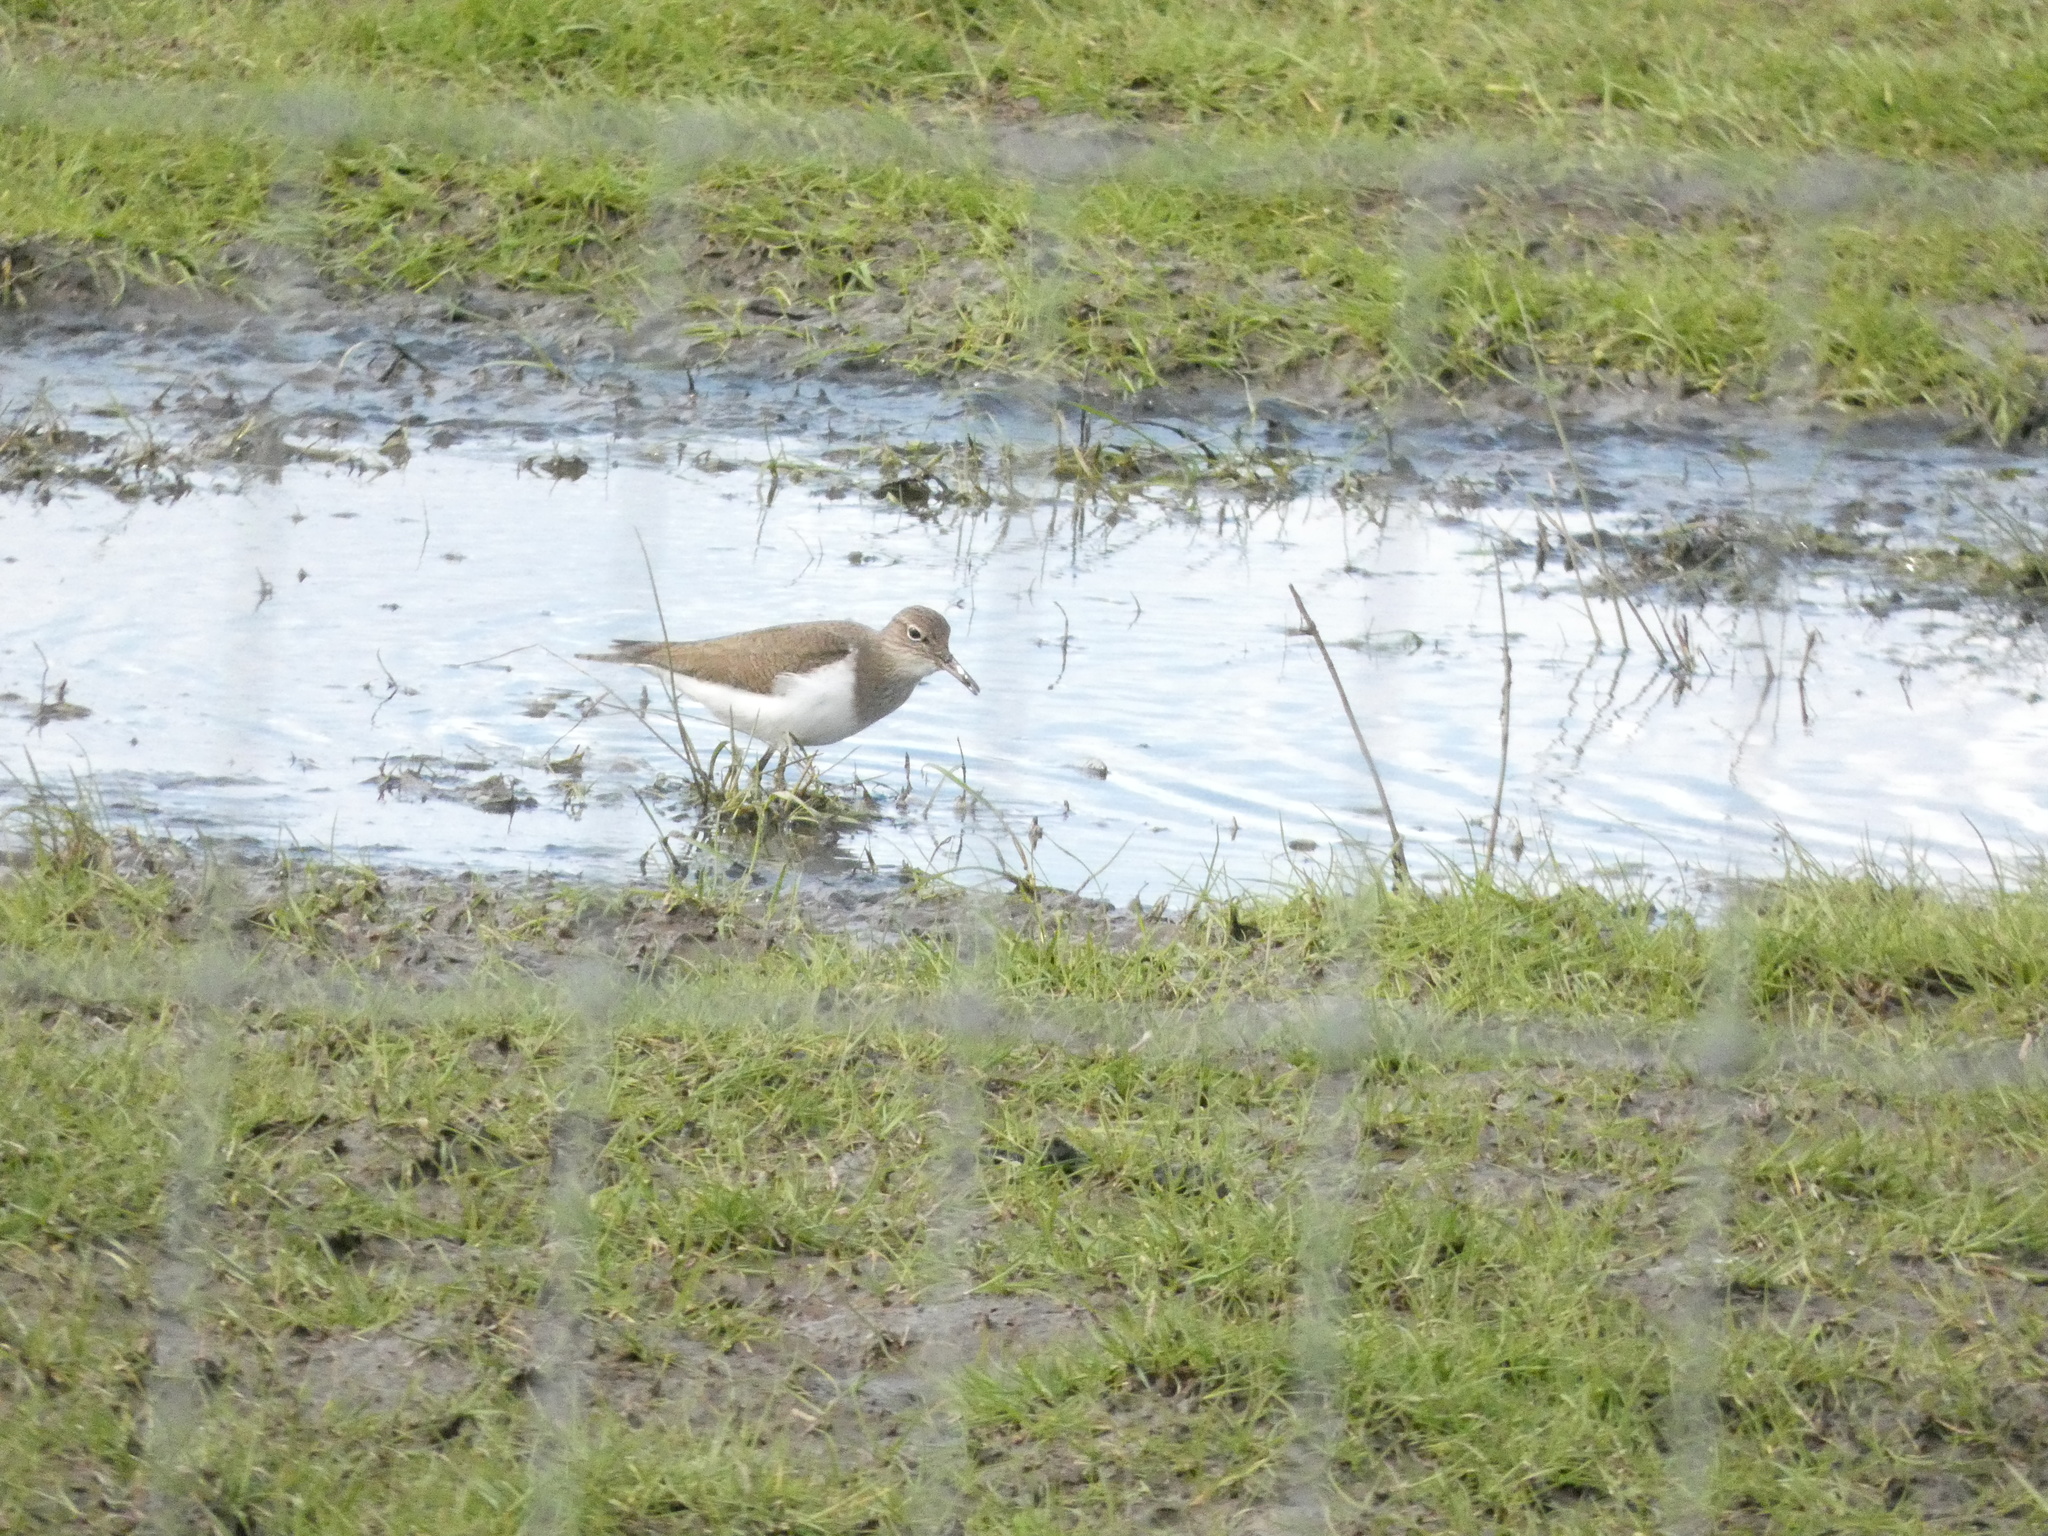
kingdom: Animalia
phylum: Chordata
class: Aves
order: Charadriiformes
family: Scolopacidae
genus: Actitis
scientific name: Actitis hypoleucos
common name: Common sandpiper
